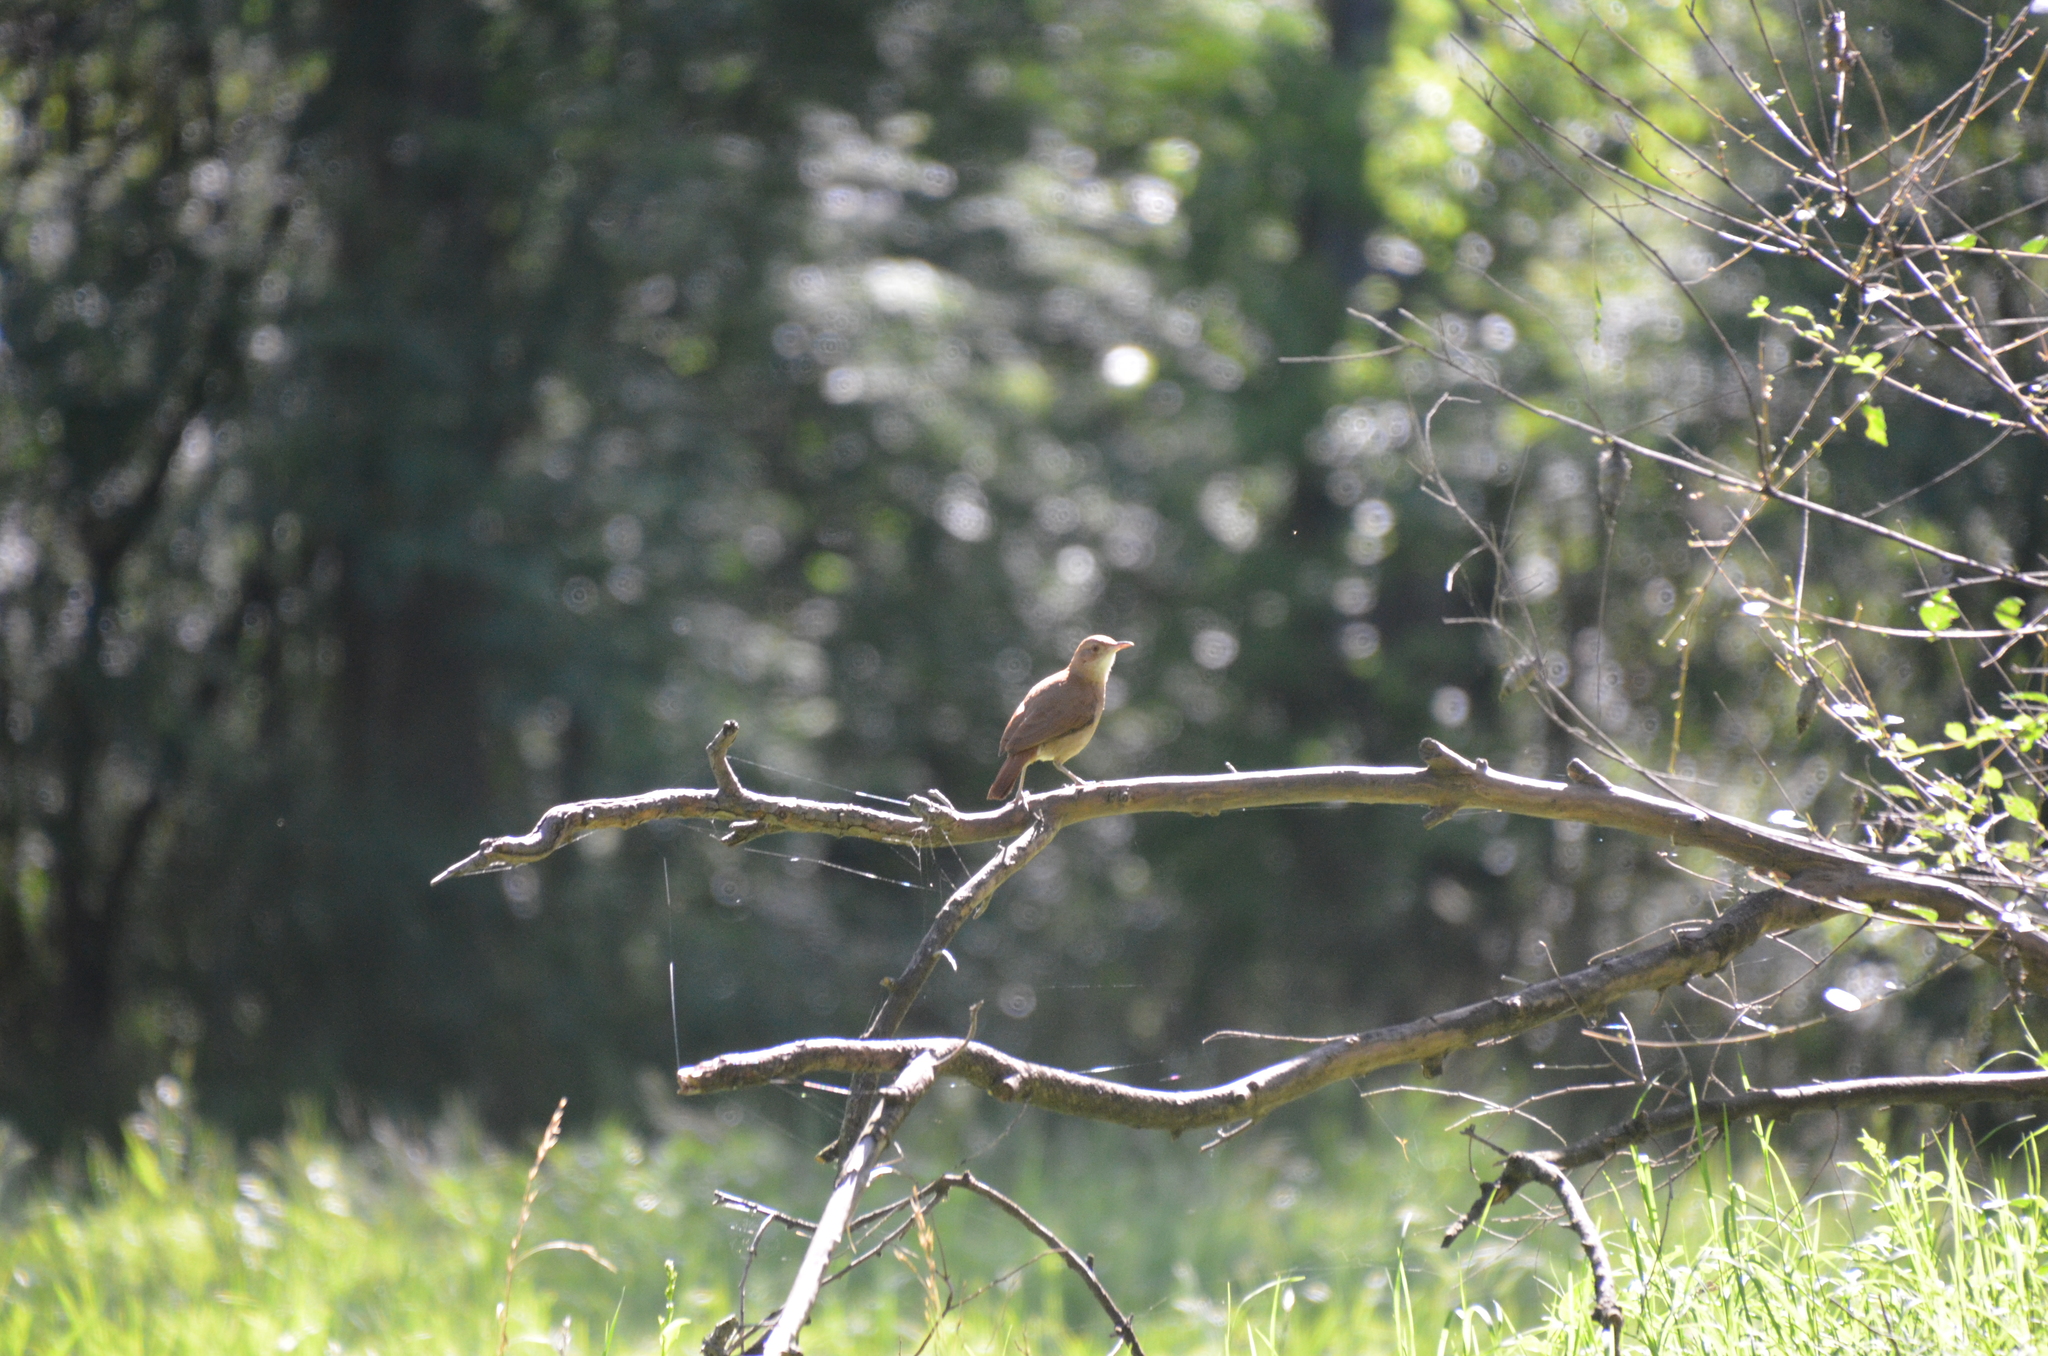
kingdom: Animalia
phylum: Chordata
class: Aves
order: Passeriformes
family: Furnariidae
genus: Furnarius
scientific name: Furnarius rufus
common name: Rufous hornero
